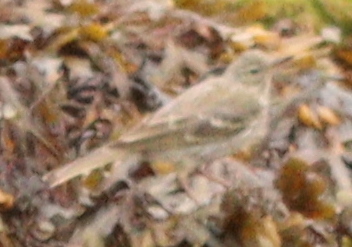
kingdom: Animalia
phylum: Chordata
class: Aves
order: Passeriformes
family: Motacillidae
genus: Anthus
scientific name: Anthus petrosus
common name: Eurasian rock pipit
